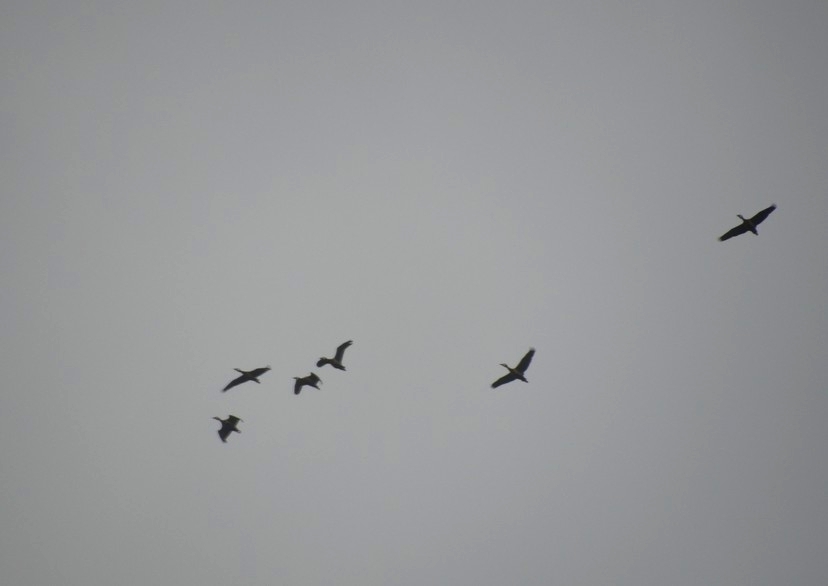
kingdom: Animalia
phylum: Chordata
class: Aves
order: Anseriformes
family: Anatidae
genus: Dendrocygna
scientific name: Dendrocygna viduata
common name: White-faced whistling duck
